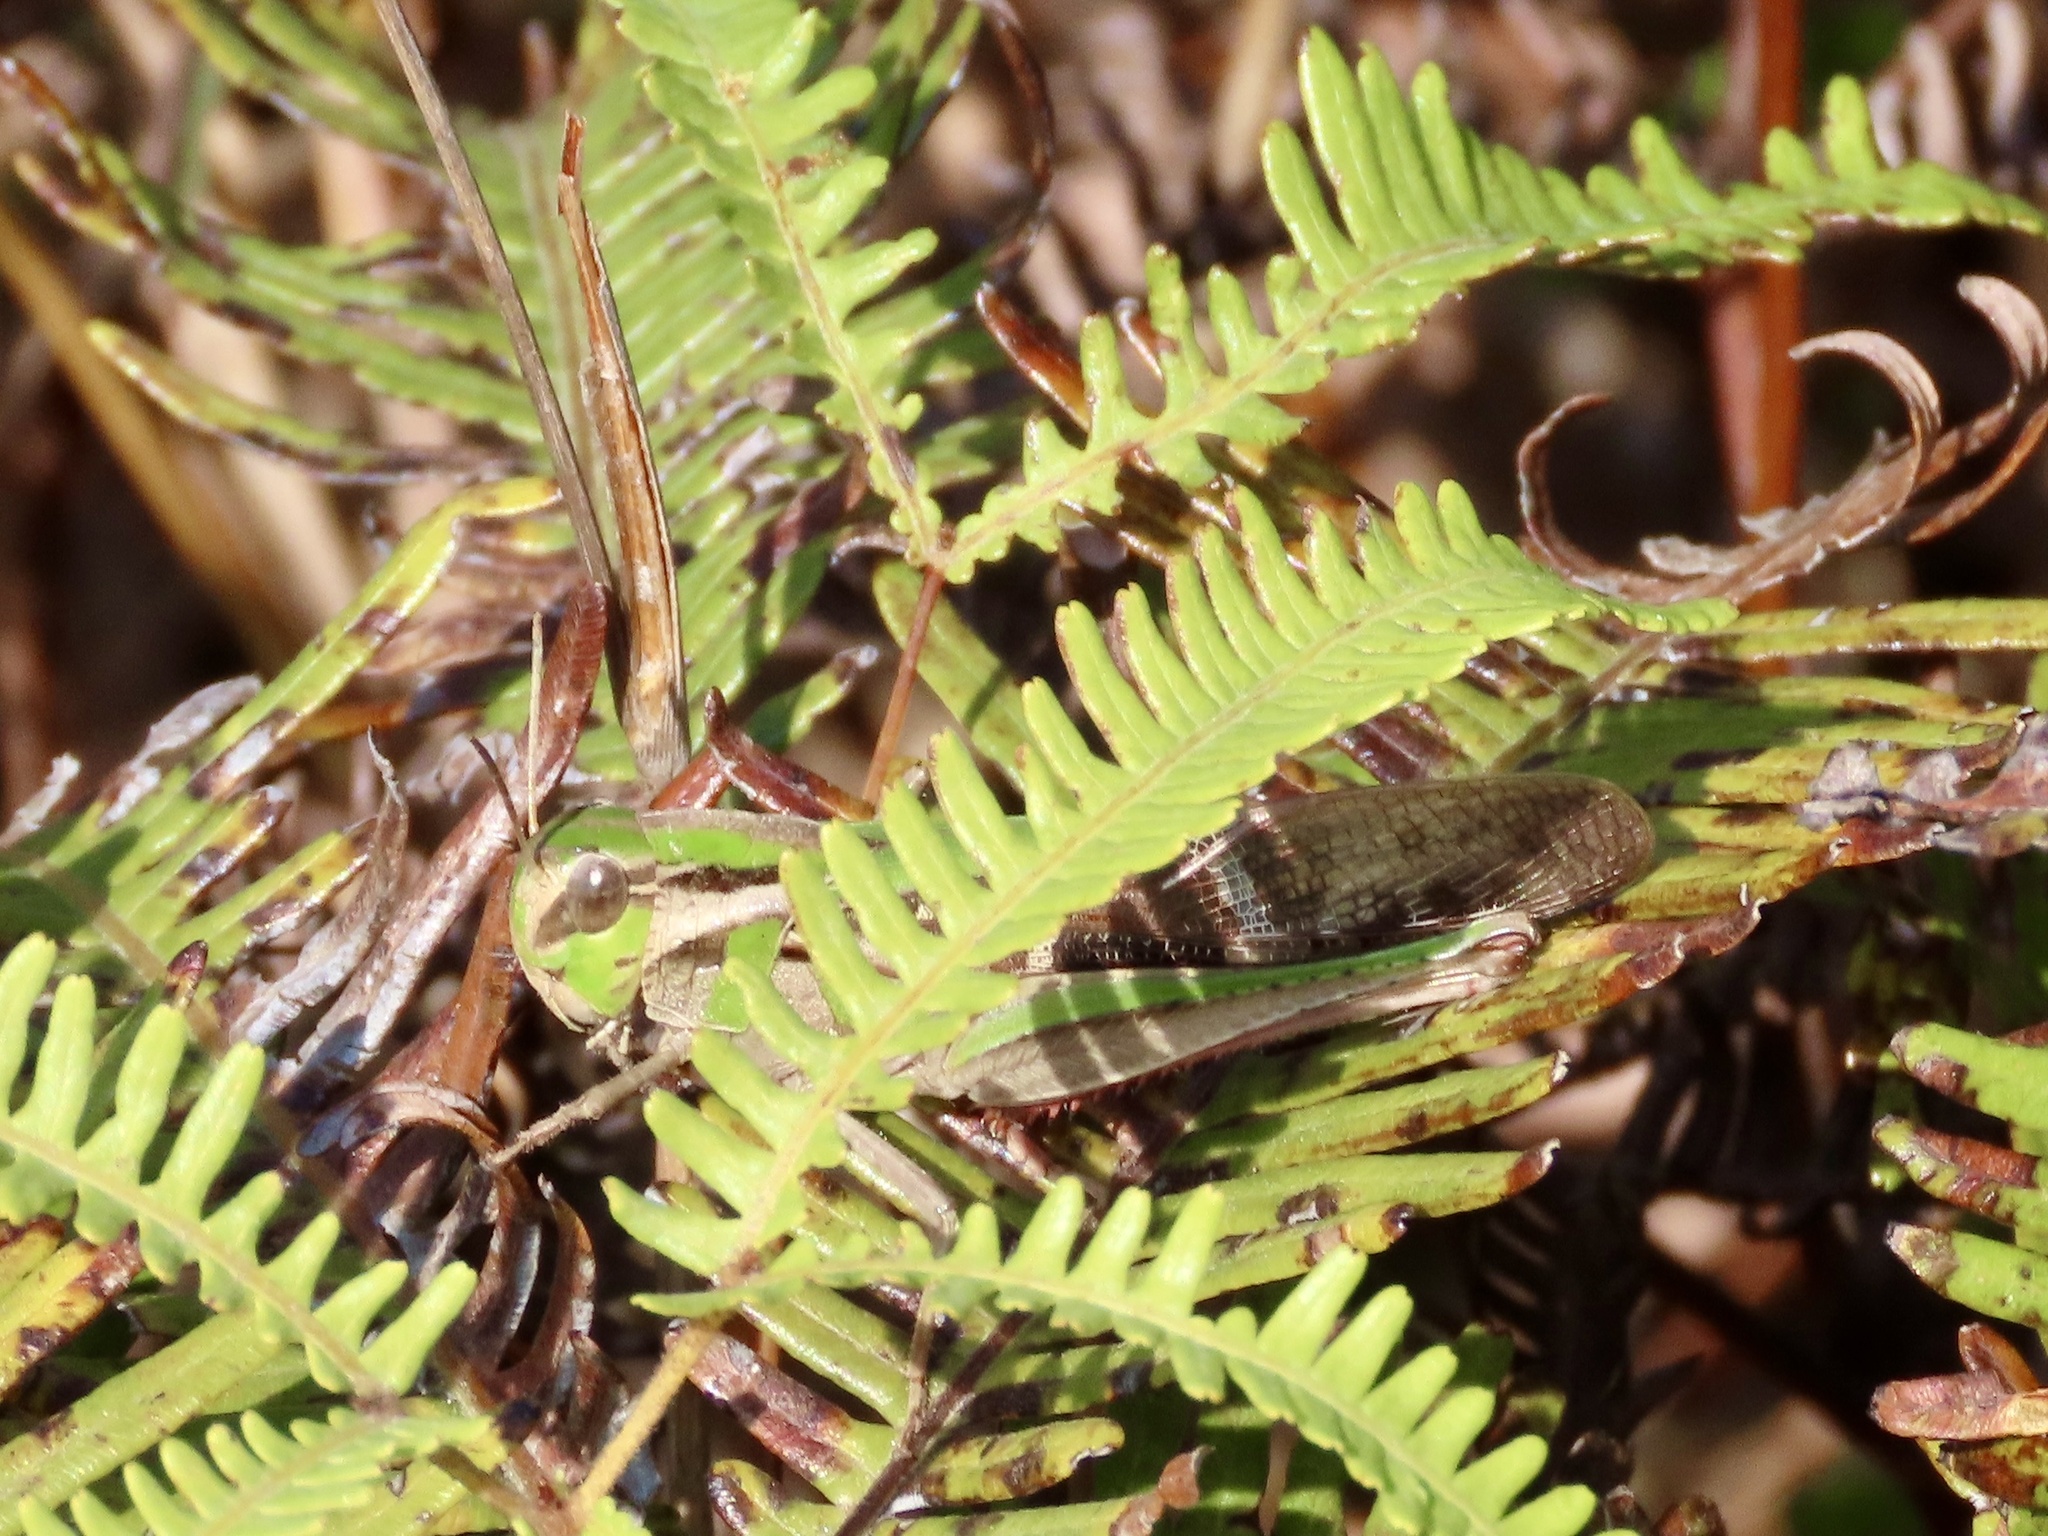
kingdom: Animalia
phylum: Arthropoda
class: Insecta
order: Orthoptera
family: Acrididae
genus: Gastrimargus
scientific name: Gastrimargus marmoratus
